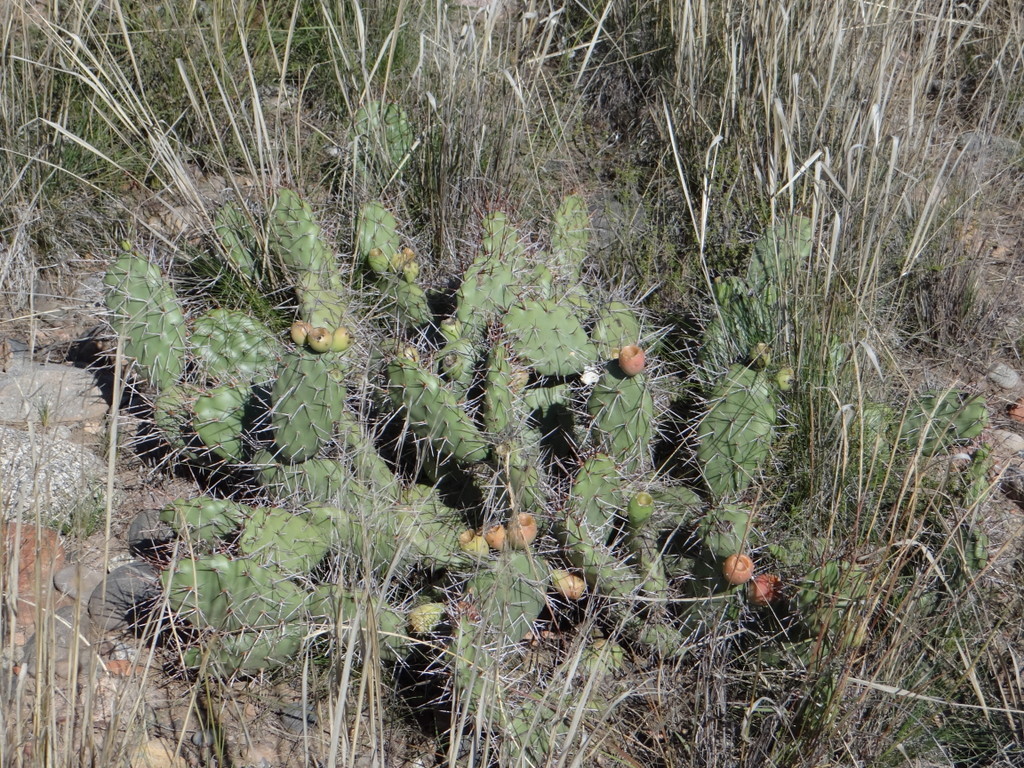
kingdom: Plantae
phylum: Tracheophyta
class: Magnoliopsida
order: Caryophyllales
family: Cactaceae
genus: Opuntia
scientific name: Opuntia sulphurea
